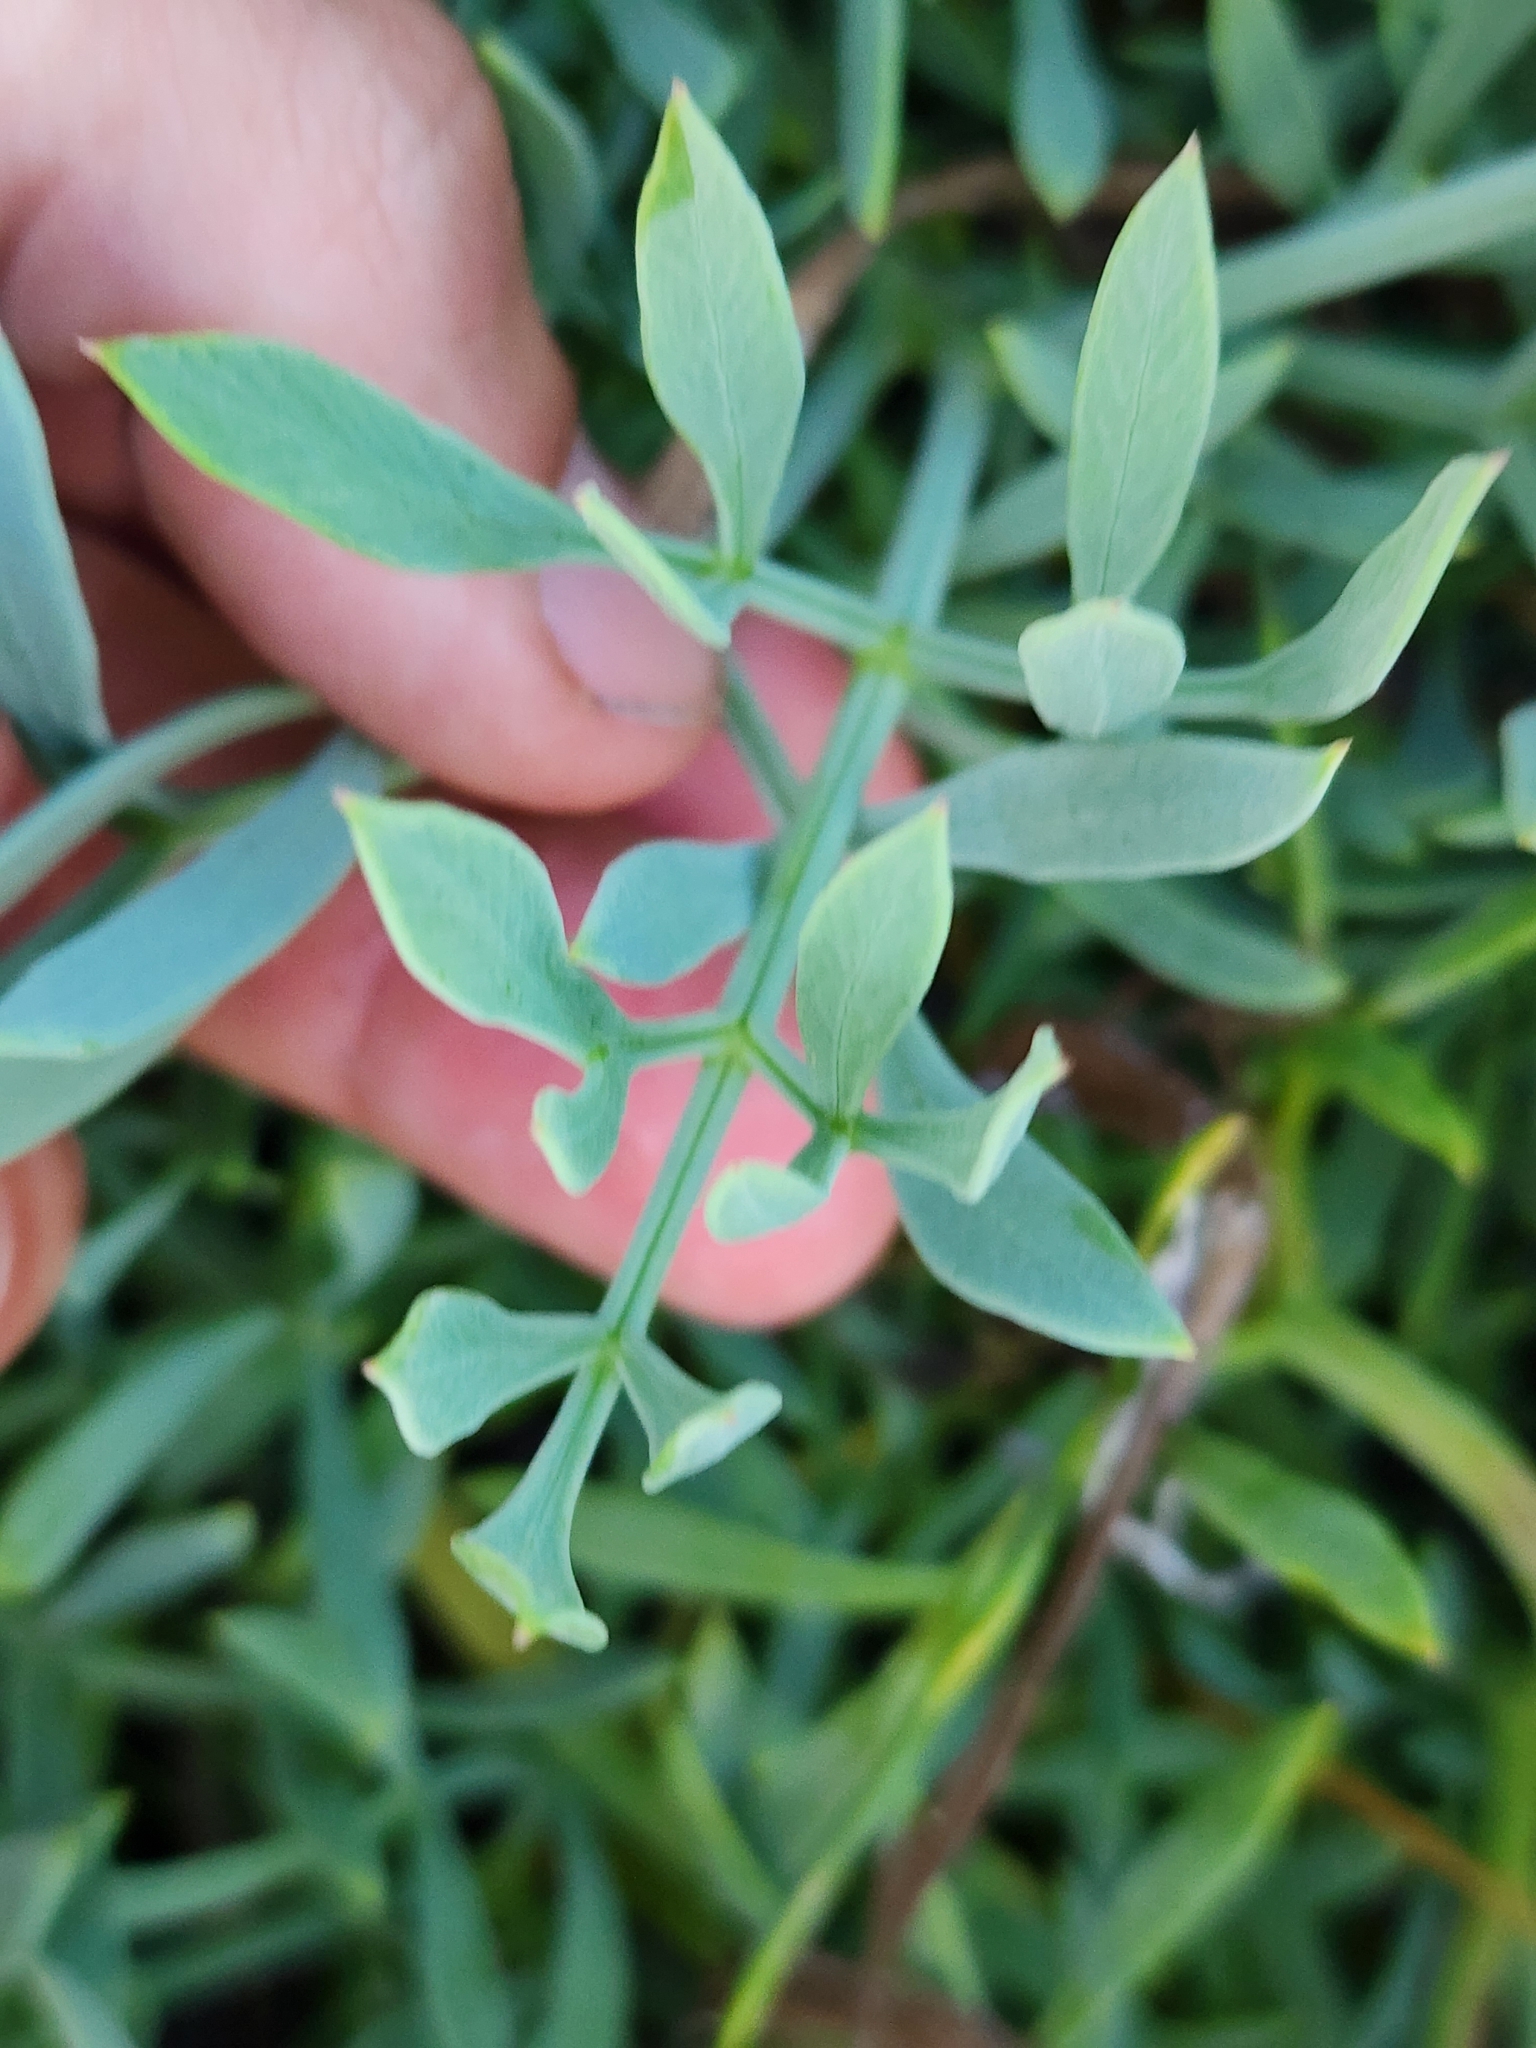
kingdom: Plantae
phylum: Tracheophyta
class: Magnoliopsida
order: Apiales
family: Apiaceae
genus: Crithmum
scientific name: Crithmum maritimum
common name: Rock samphire
